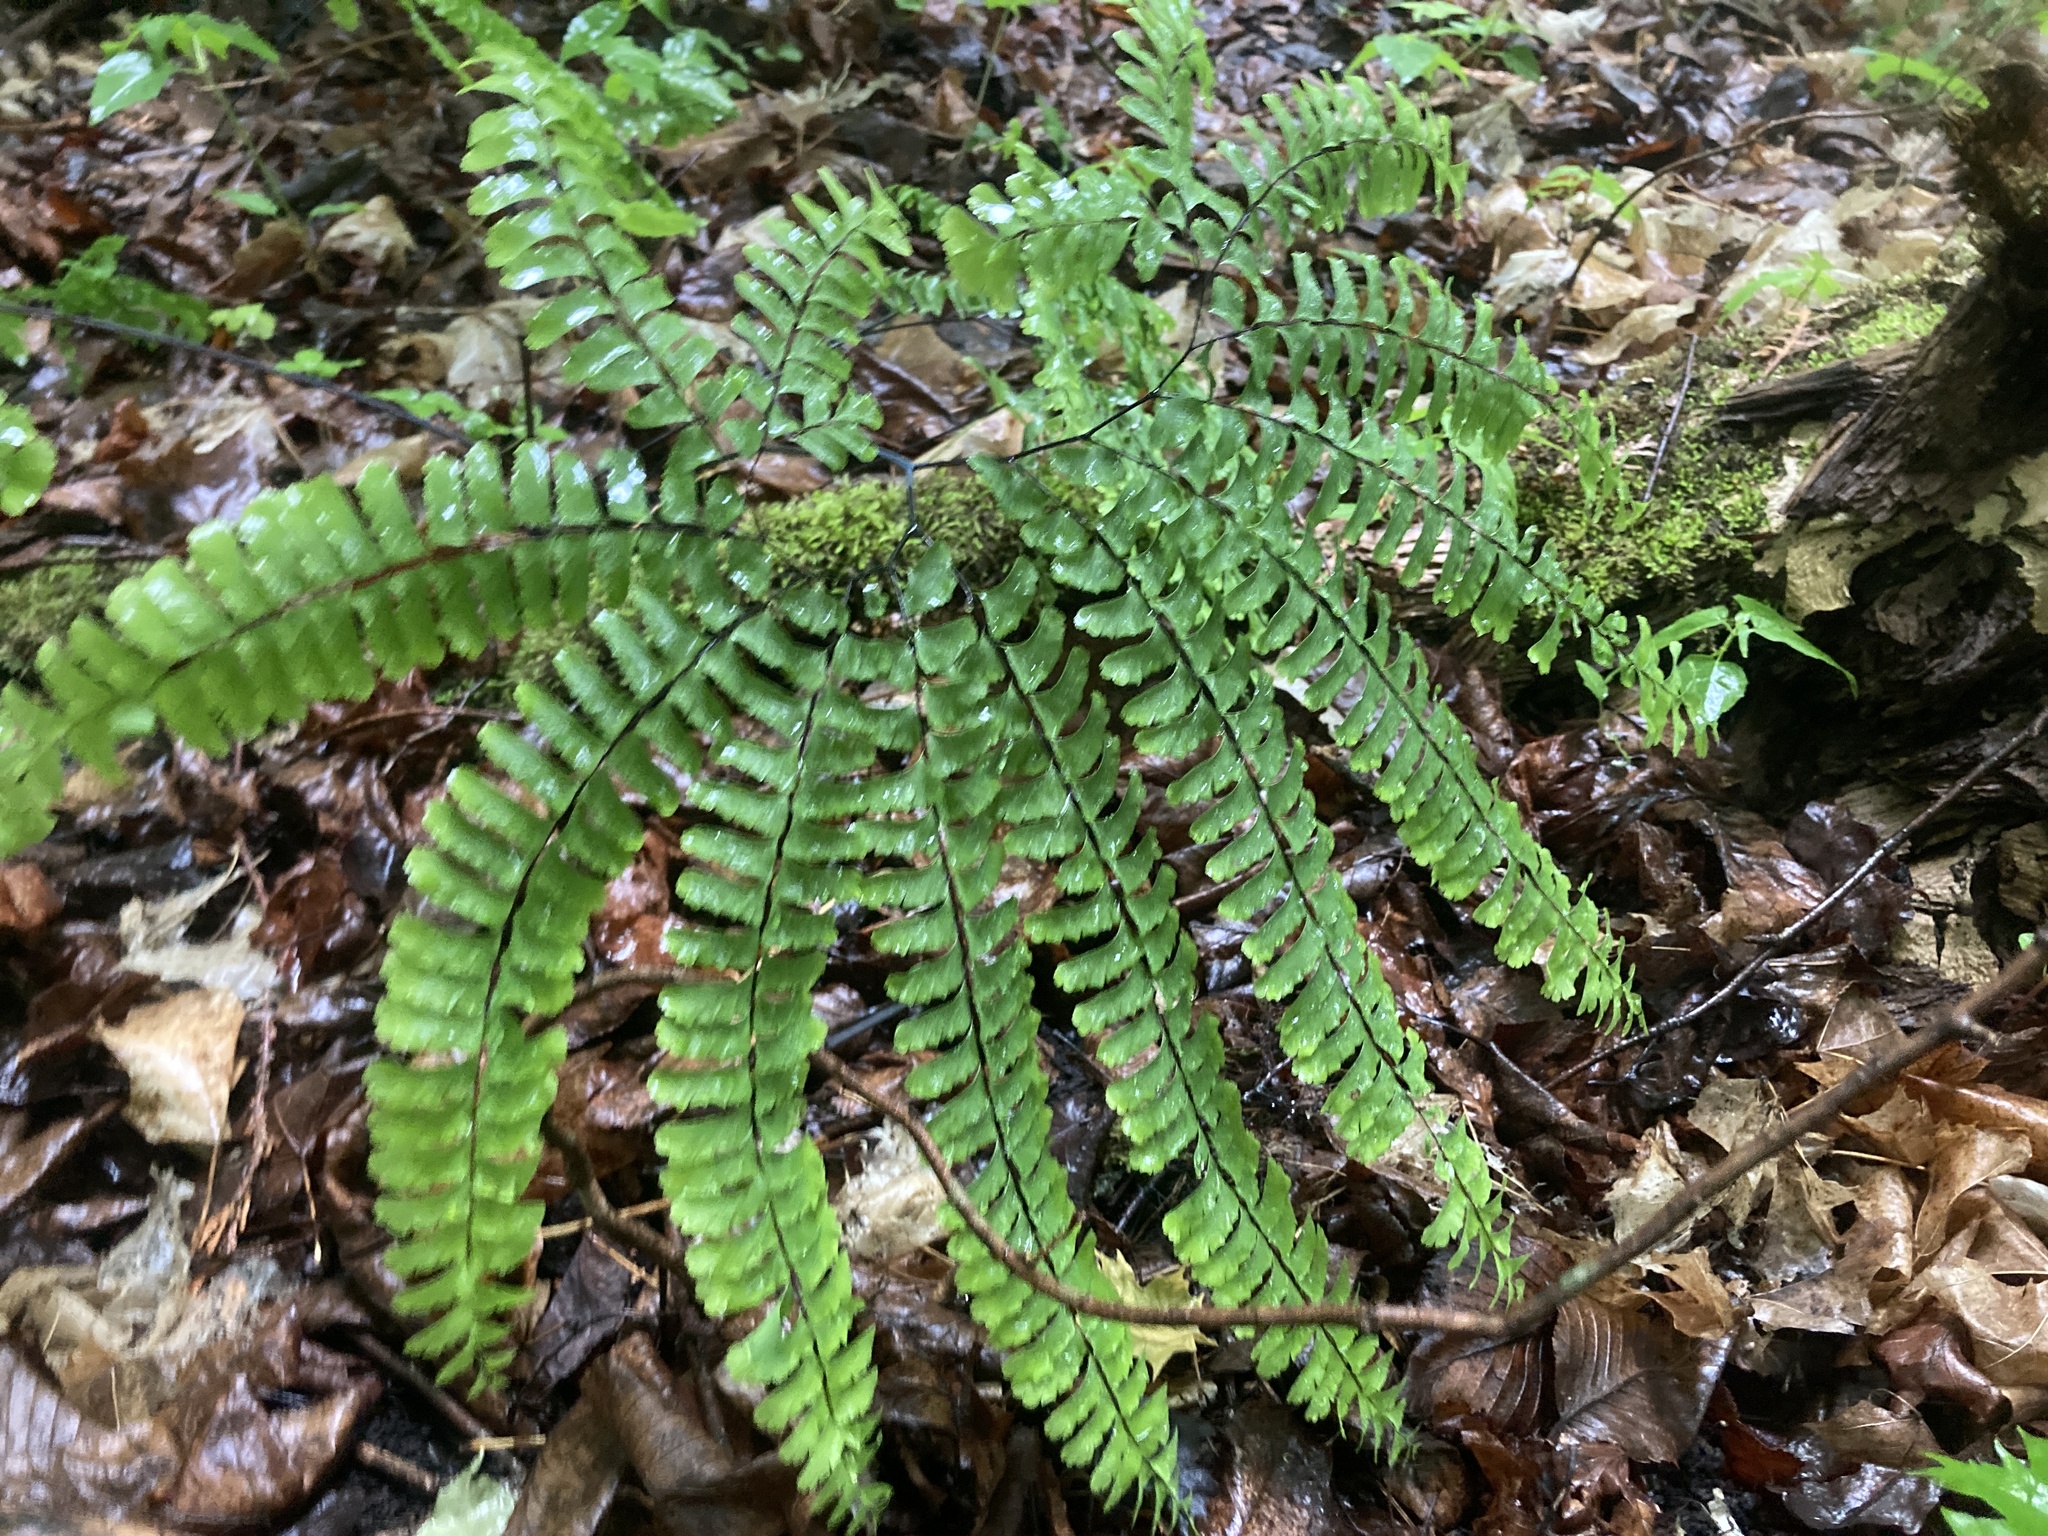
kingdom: Plantae
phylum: Tracheophyta
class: Polypodiopsida
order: Polypodiales
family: Pteridaceae
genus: Adiantum
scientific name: Adiantum pedatum
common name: Five-finger fern
